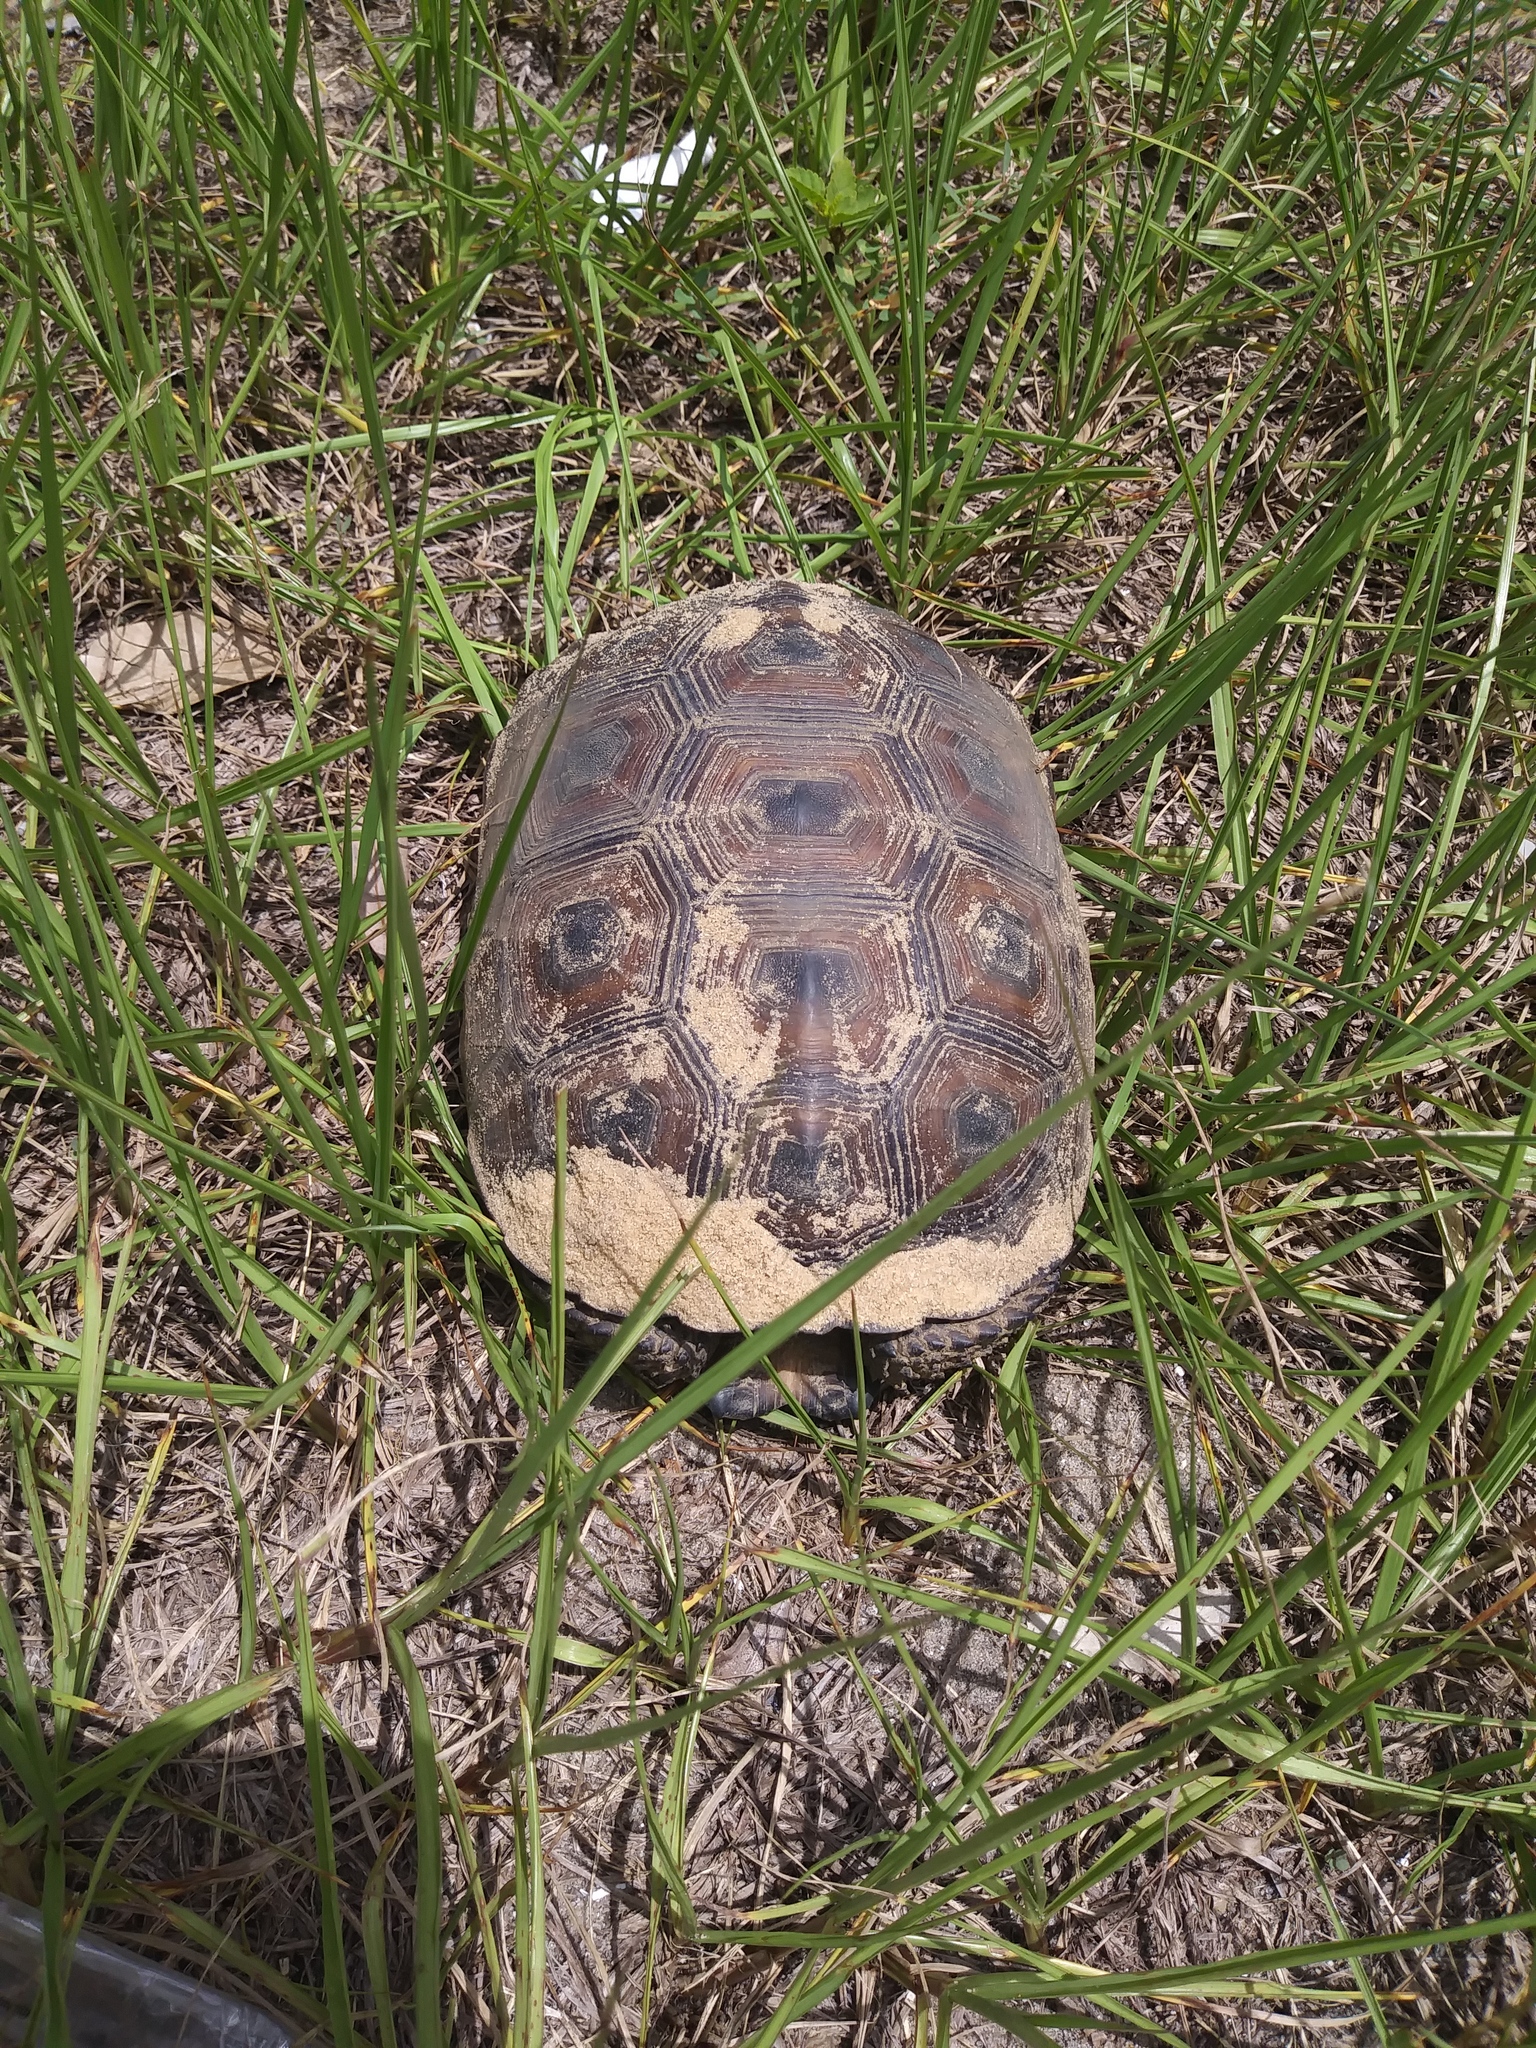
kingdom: Animalia
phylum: Chordata
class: Testudines
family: Testudinidae
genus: Gopherus
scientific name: Gopherus polyphemus
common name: Florida gopher tortoise
